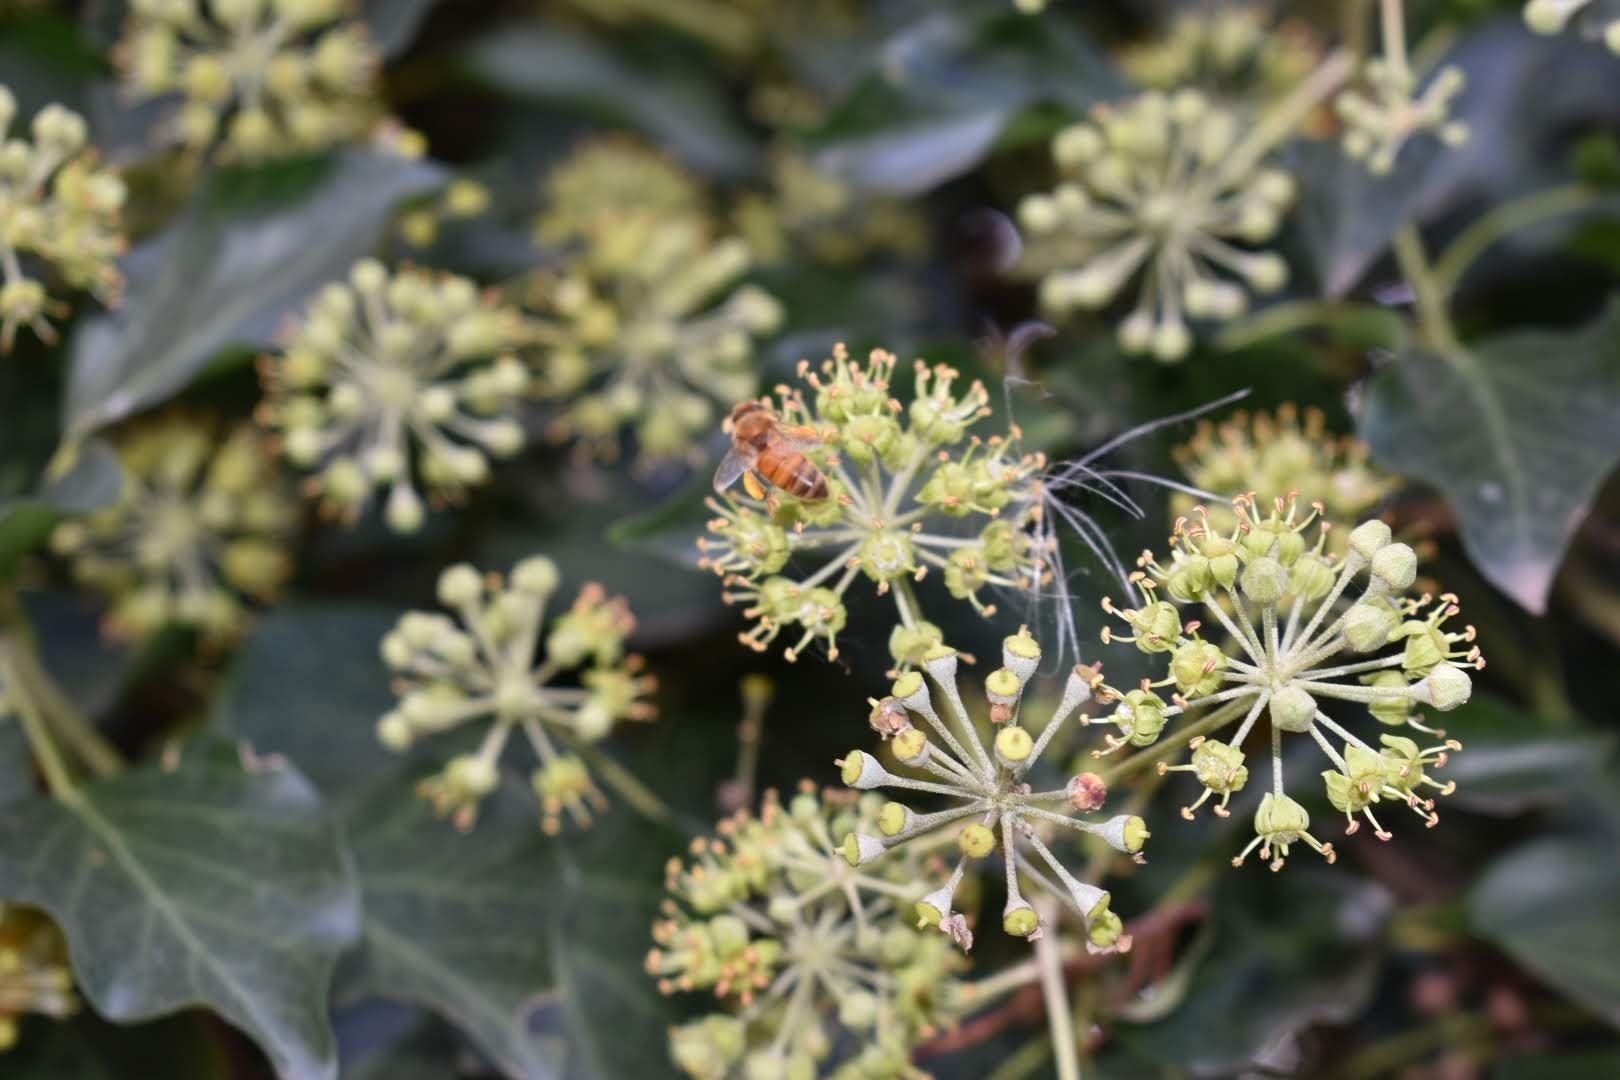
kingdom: Animalia
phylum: Arthropoda
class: Insecta
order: Hymenoptera
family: Apidae
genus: Apis
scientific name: Apis mellifera
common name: Honey bee
